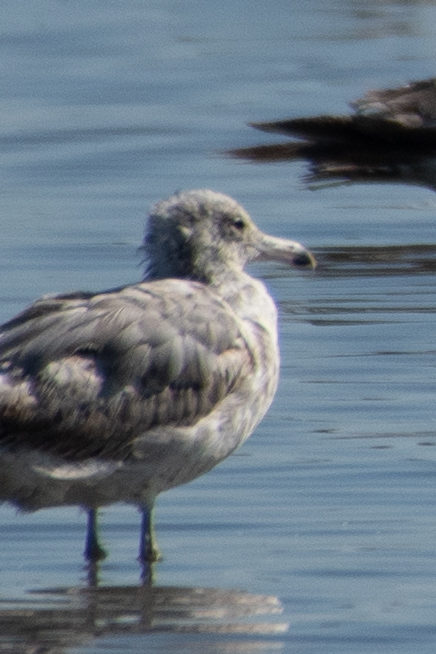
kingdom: Animalia
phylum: Chordata
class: Aves
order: Charadriiformes
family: Laridae
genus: Larus
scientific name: Larus californicus
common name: California gull
